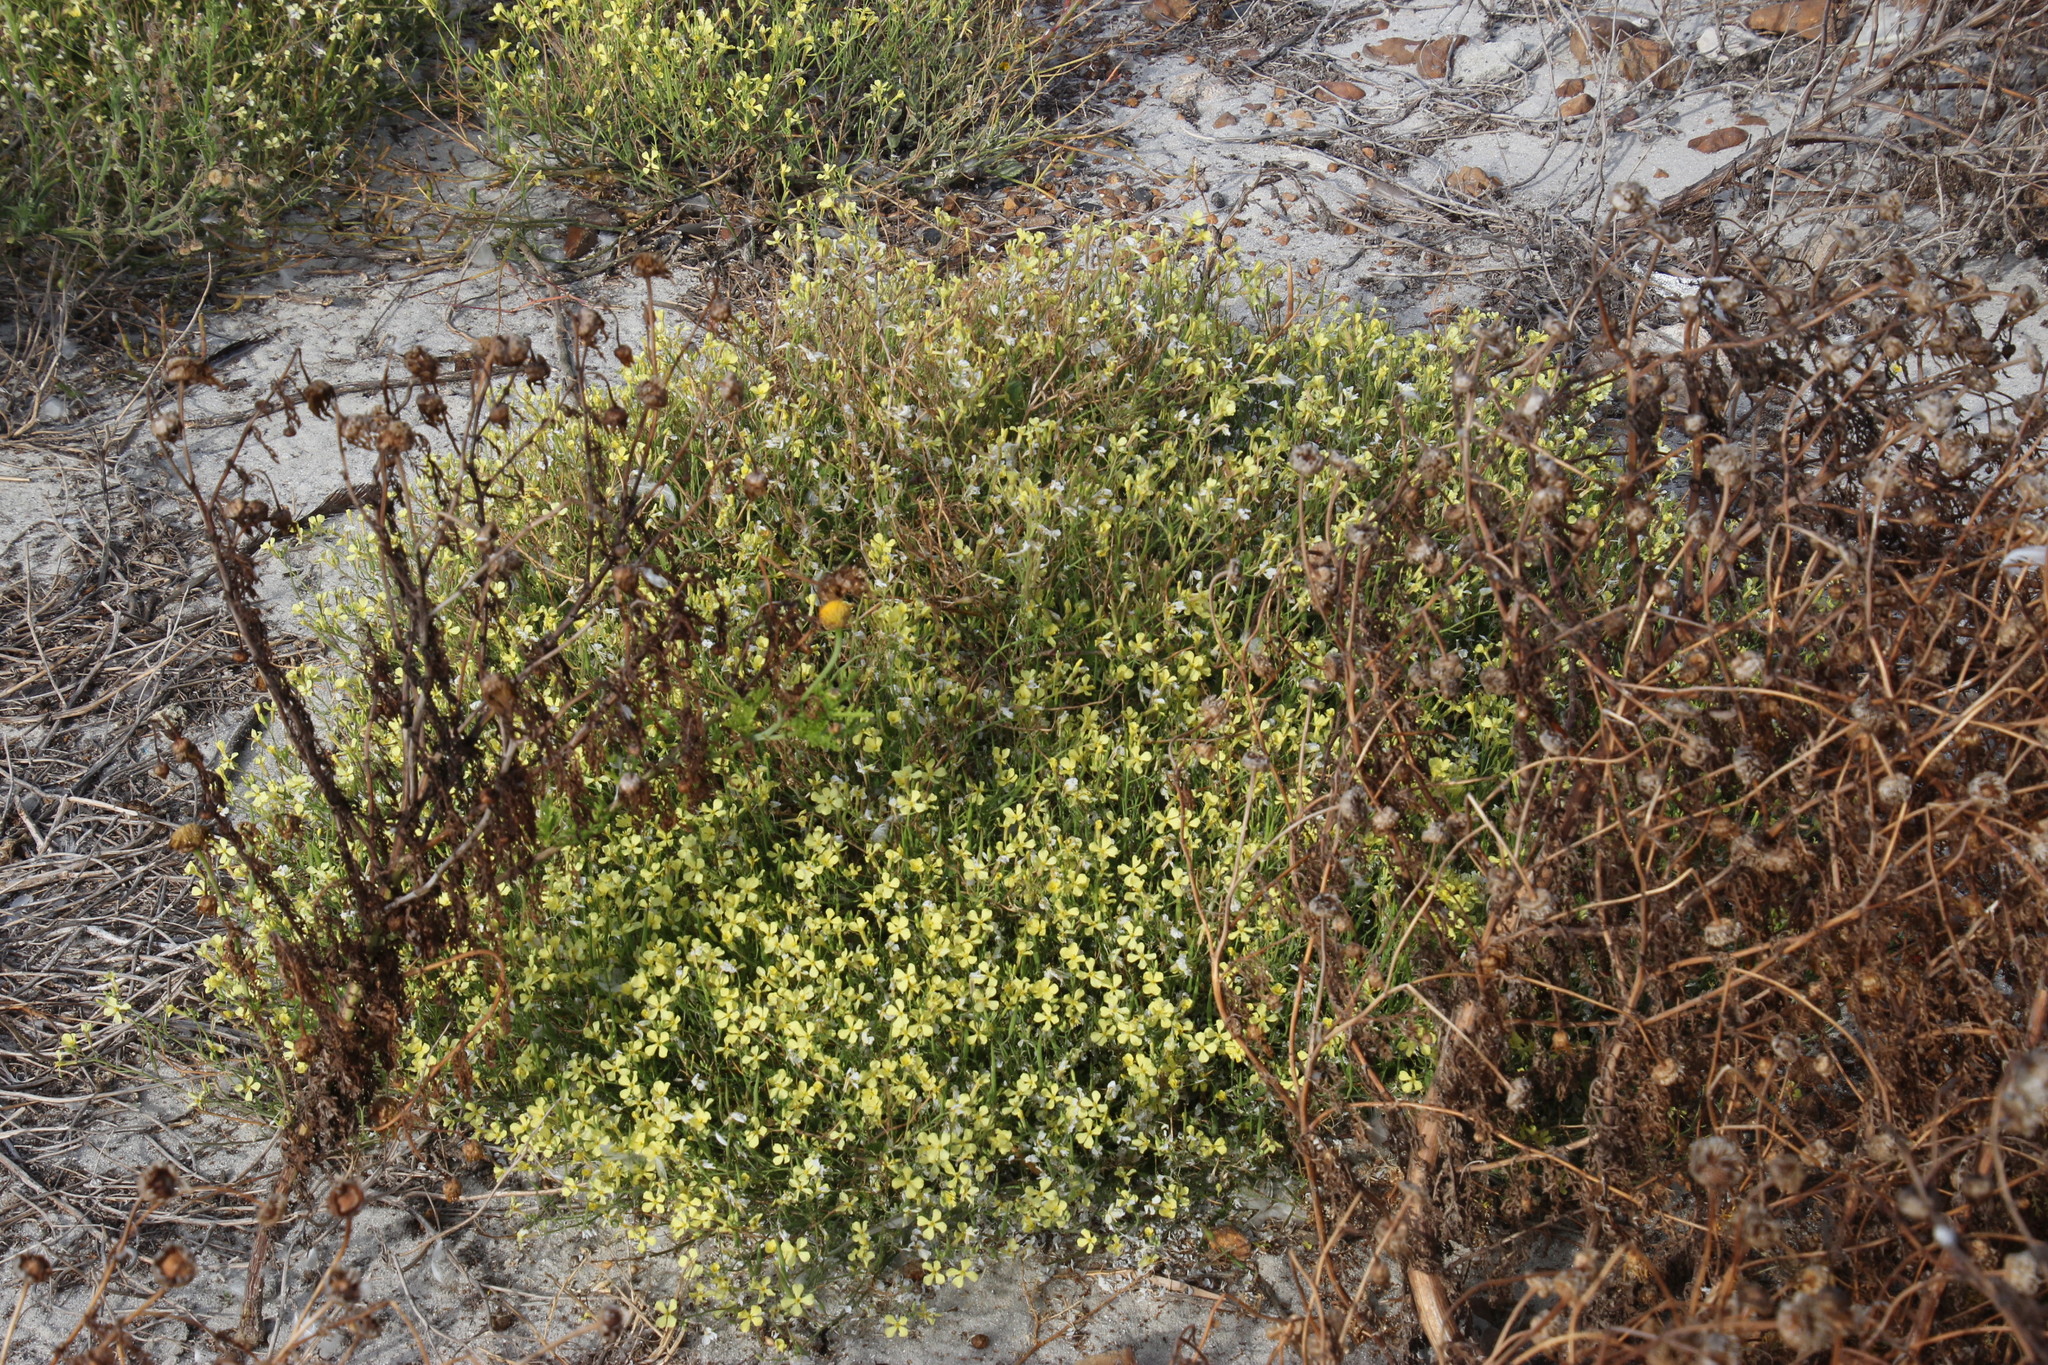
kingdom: Plantae
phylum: Tracheophyta
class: Magnoliopsida
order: Brassicales
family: Brassicaceae
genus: Raphanus
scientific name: Raphanus raphanistrum
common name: Wild radish
